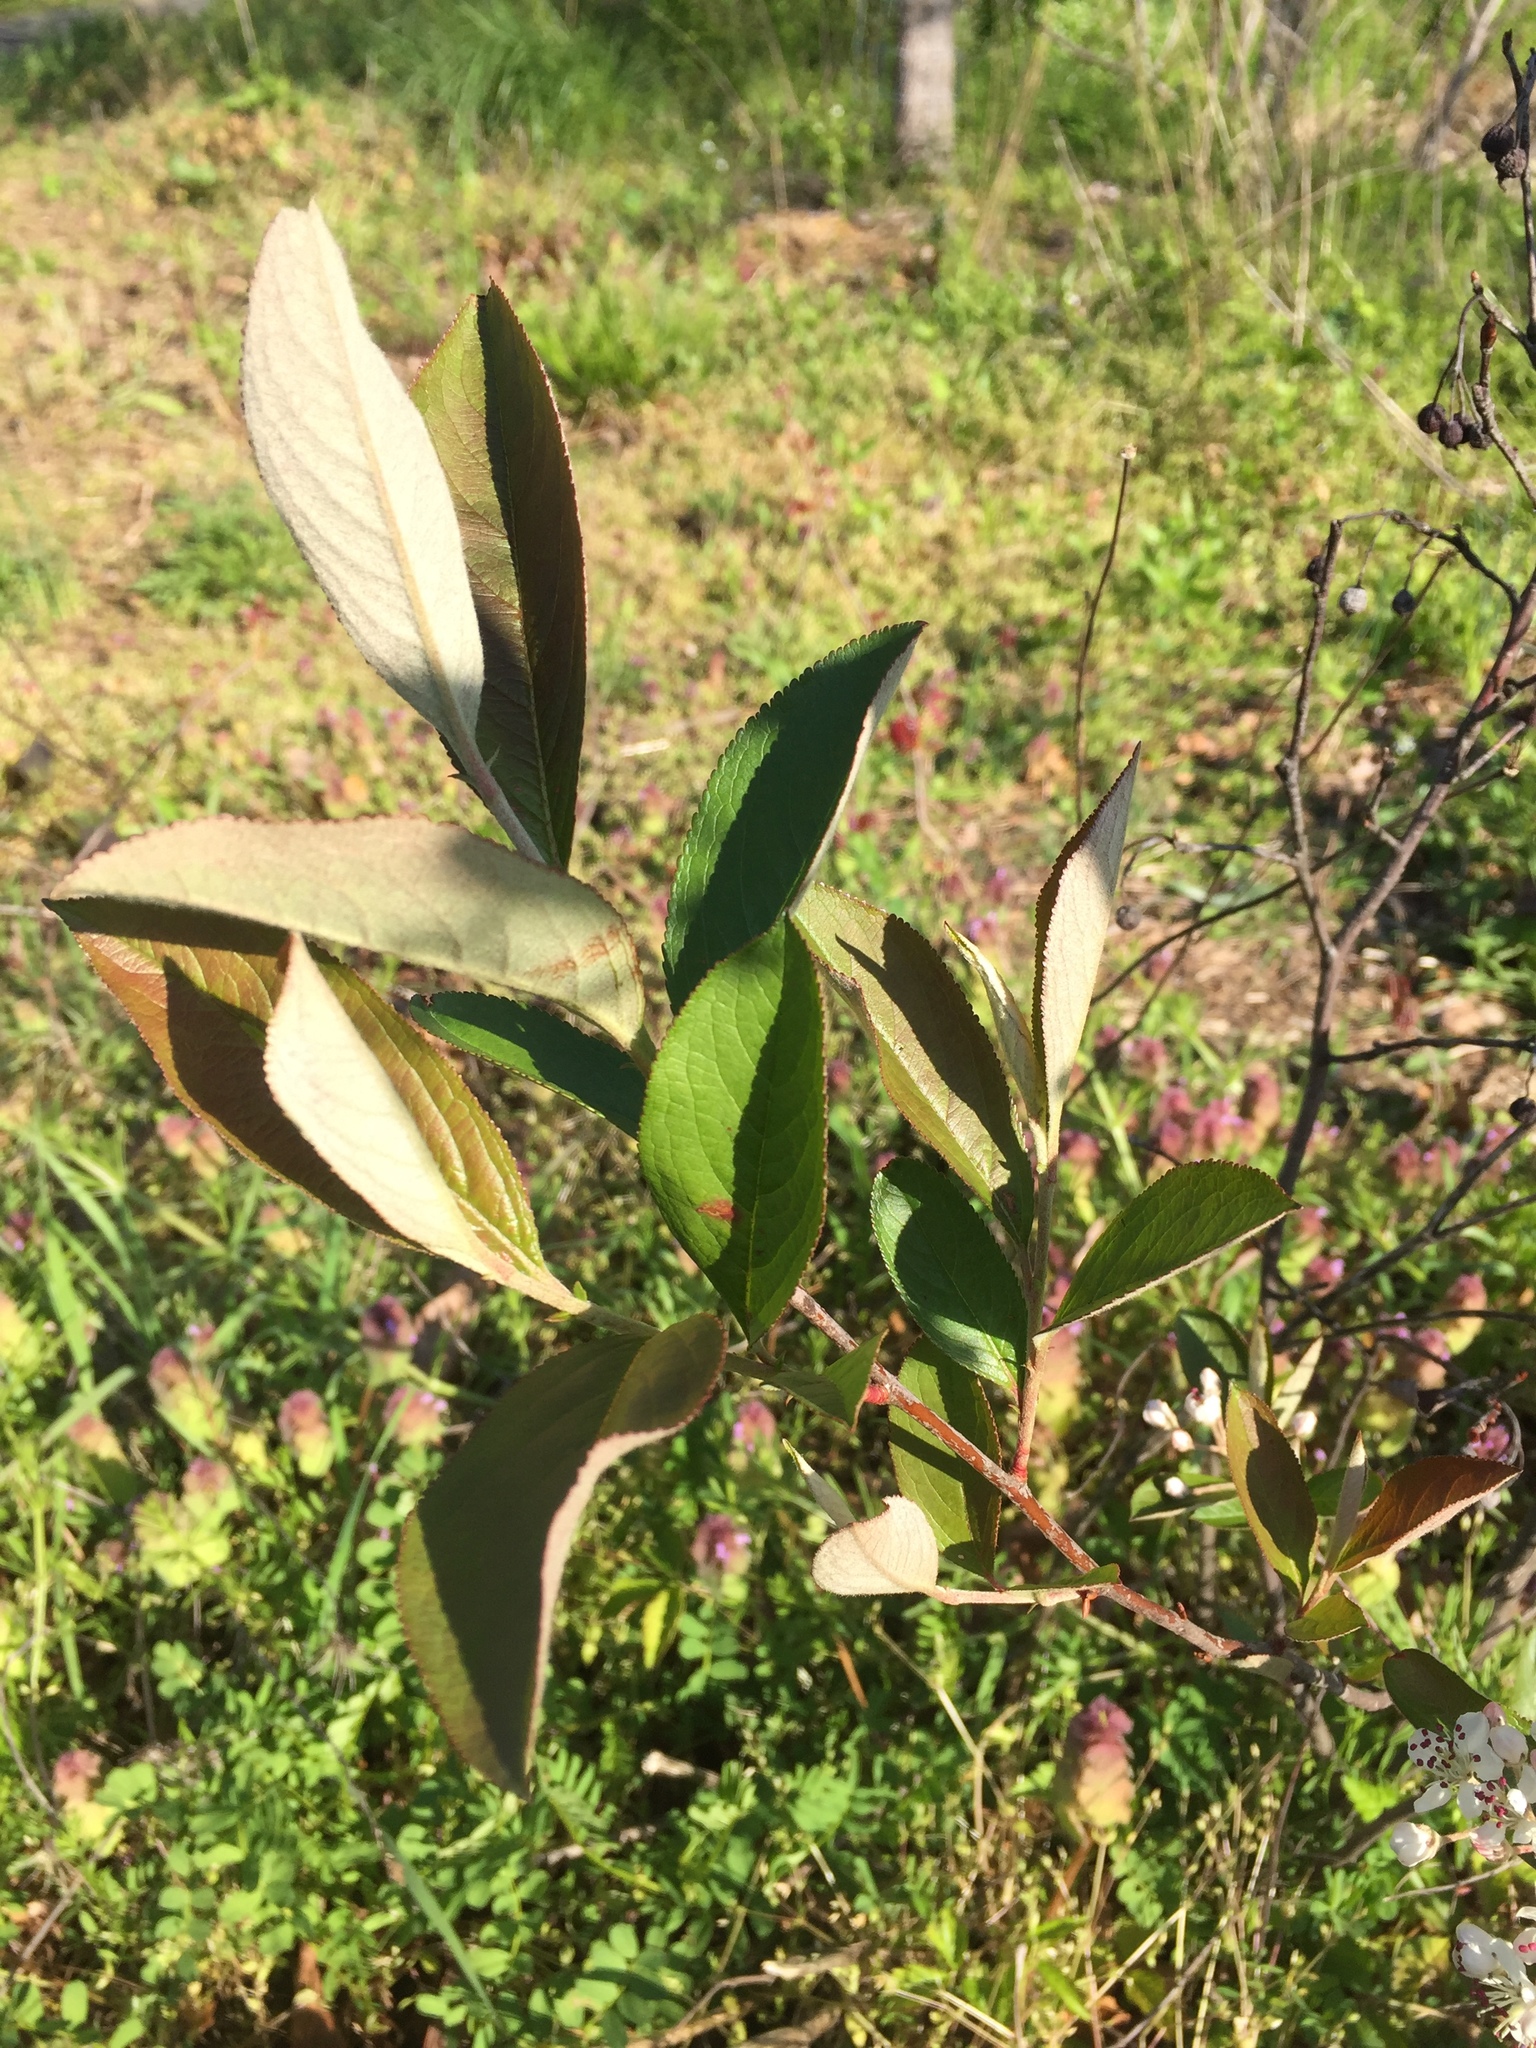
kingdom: Plantae
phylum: Tracheophyta
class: Magnoliopsida
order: Rosales
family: Rosaceae
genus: Aronia
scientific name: Aronia arbutifolia
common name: Red chokeberry
